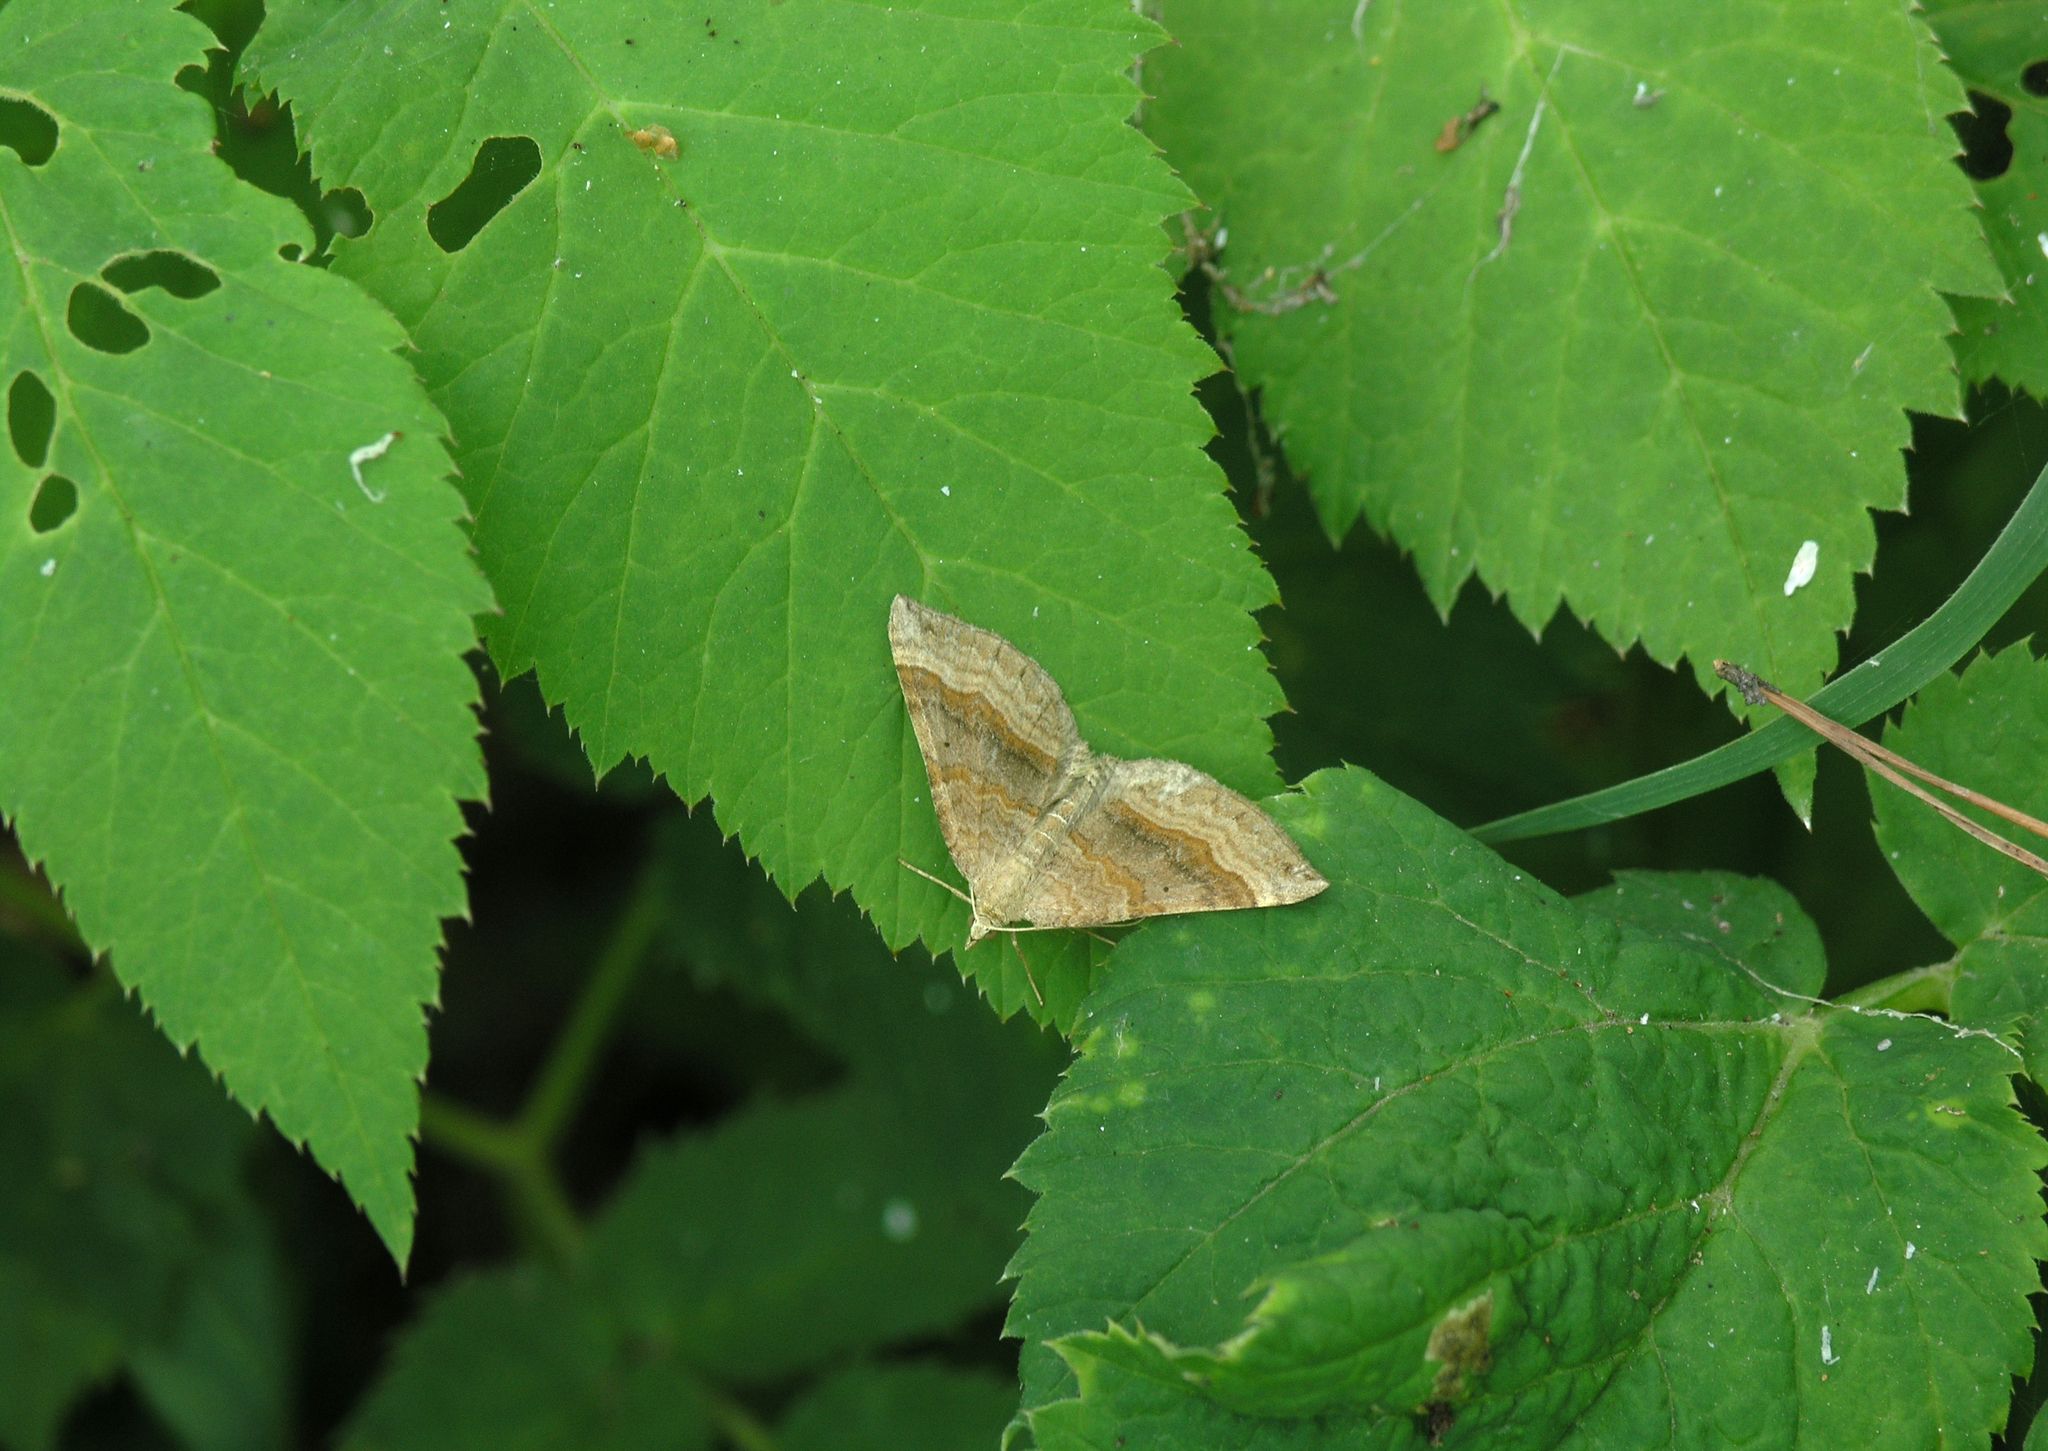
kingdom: Animalia
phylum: Arthropoda
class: Insecta
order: Lepidoptera
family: Geometridae
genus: Scotopteryx
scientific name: Scotopteryx chenopodiata
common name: Shaded broad-bar
